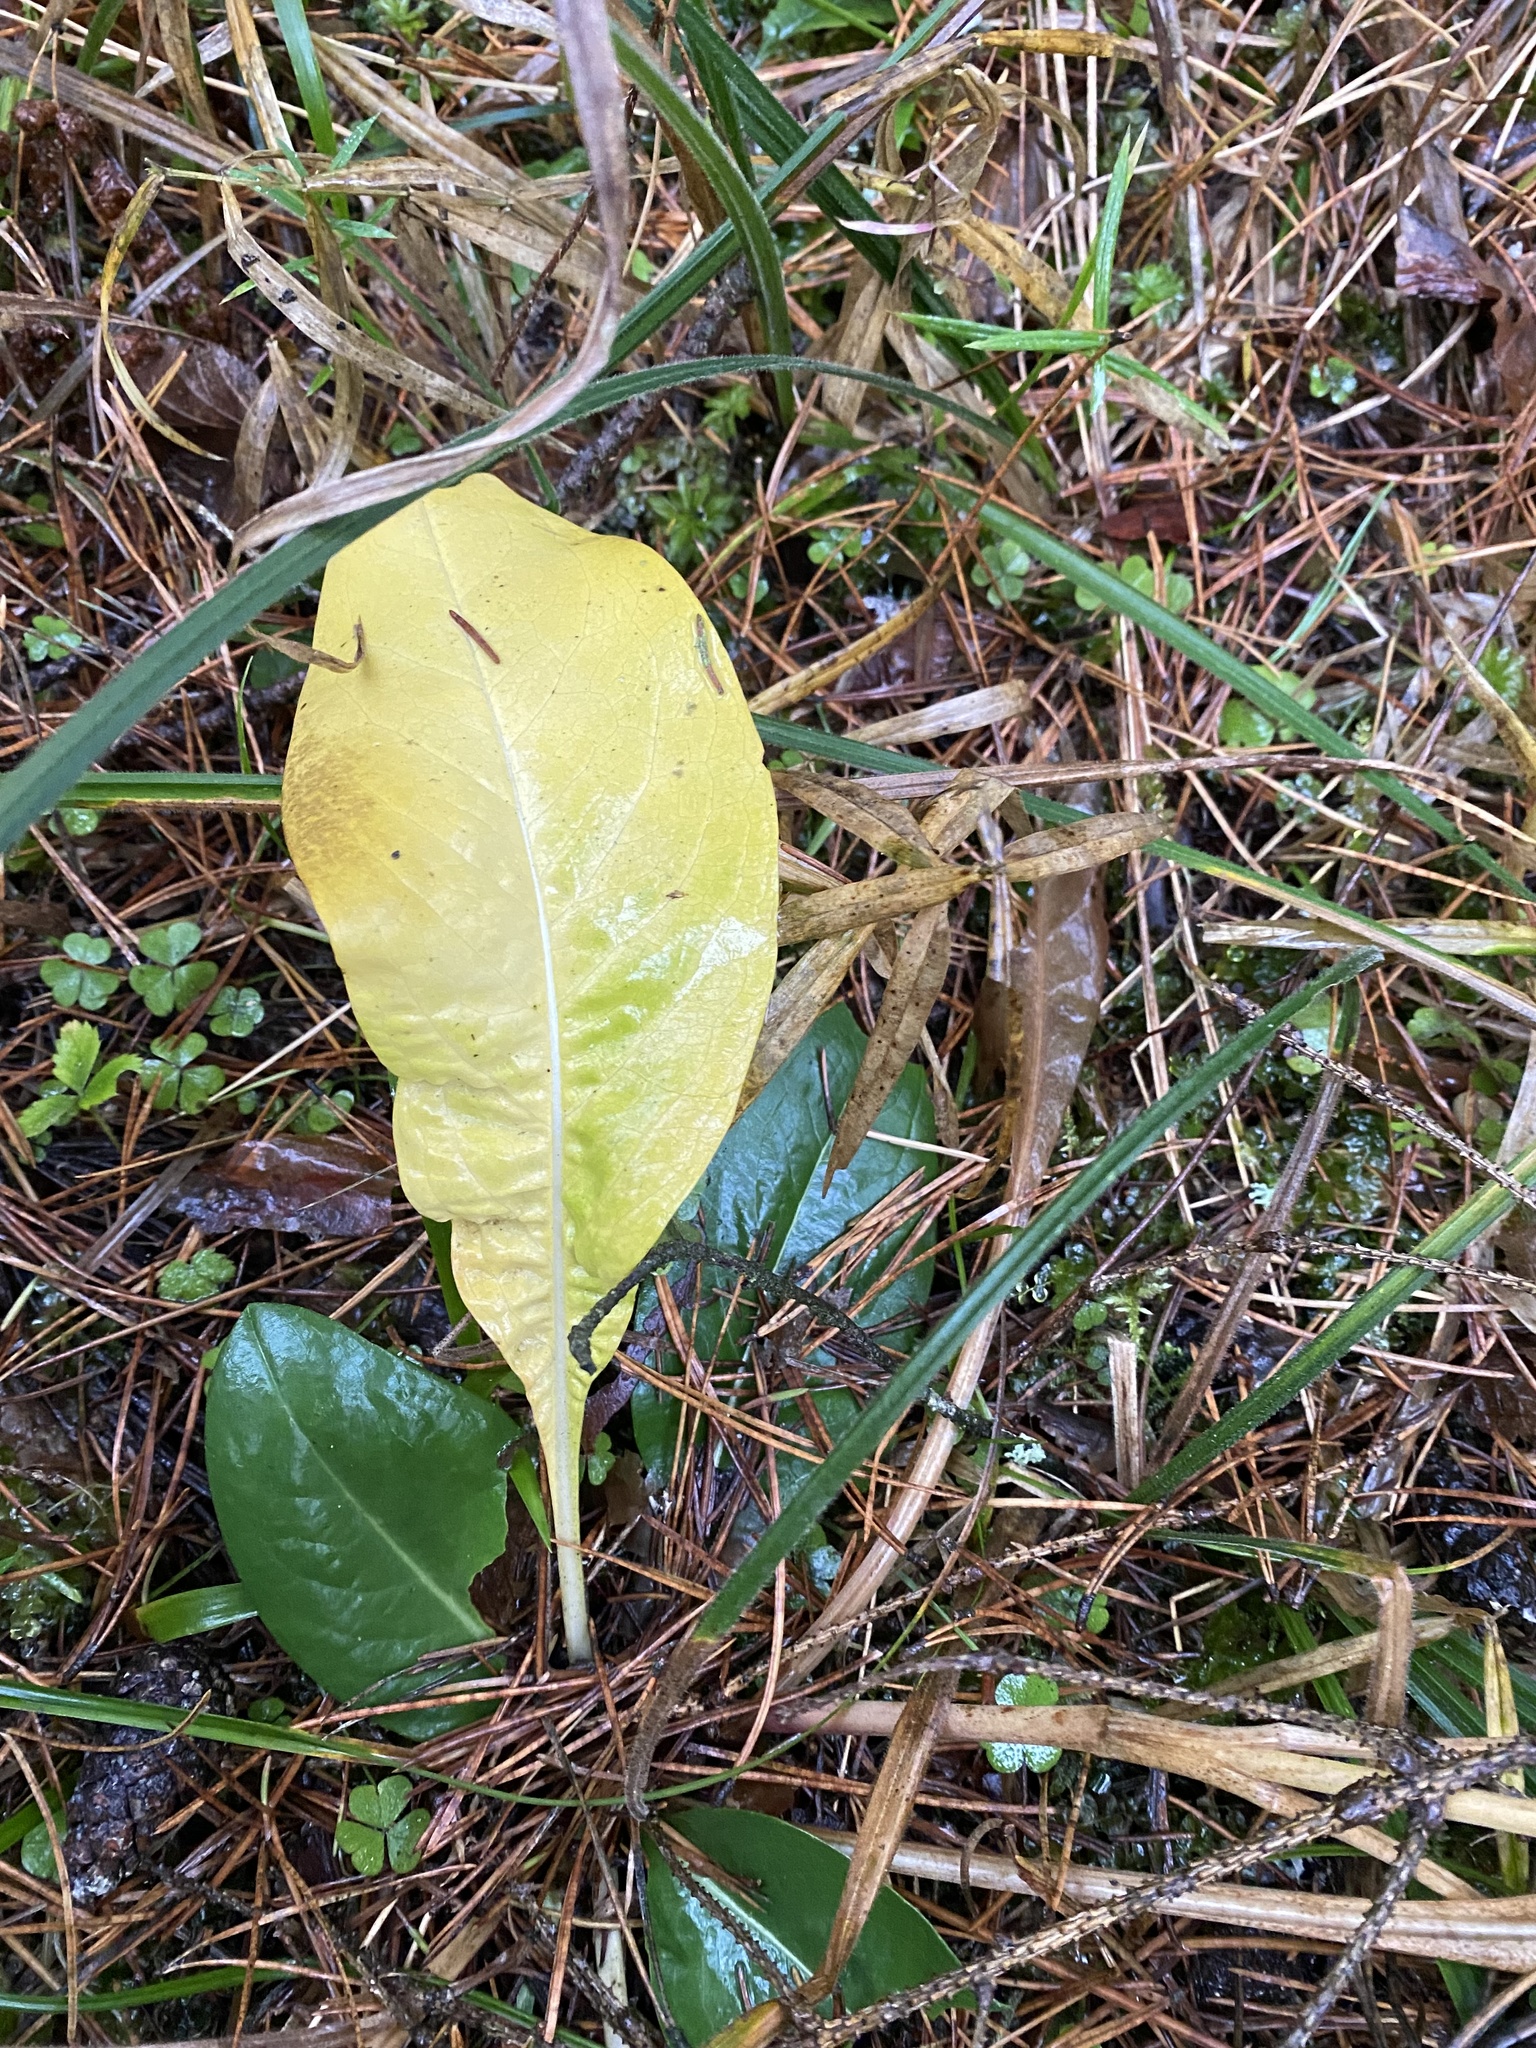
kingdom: Plantae
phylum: Tracheophyta
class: Magnoliopsida
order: Dipsacales
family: Caprifoliaceae
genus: Succisa
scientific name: Succisa pratensis
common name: Devil's-bit
